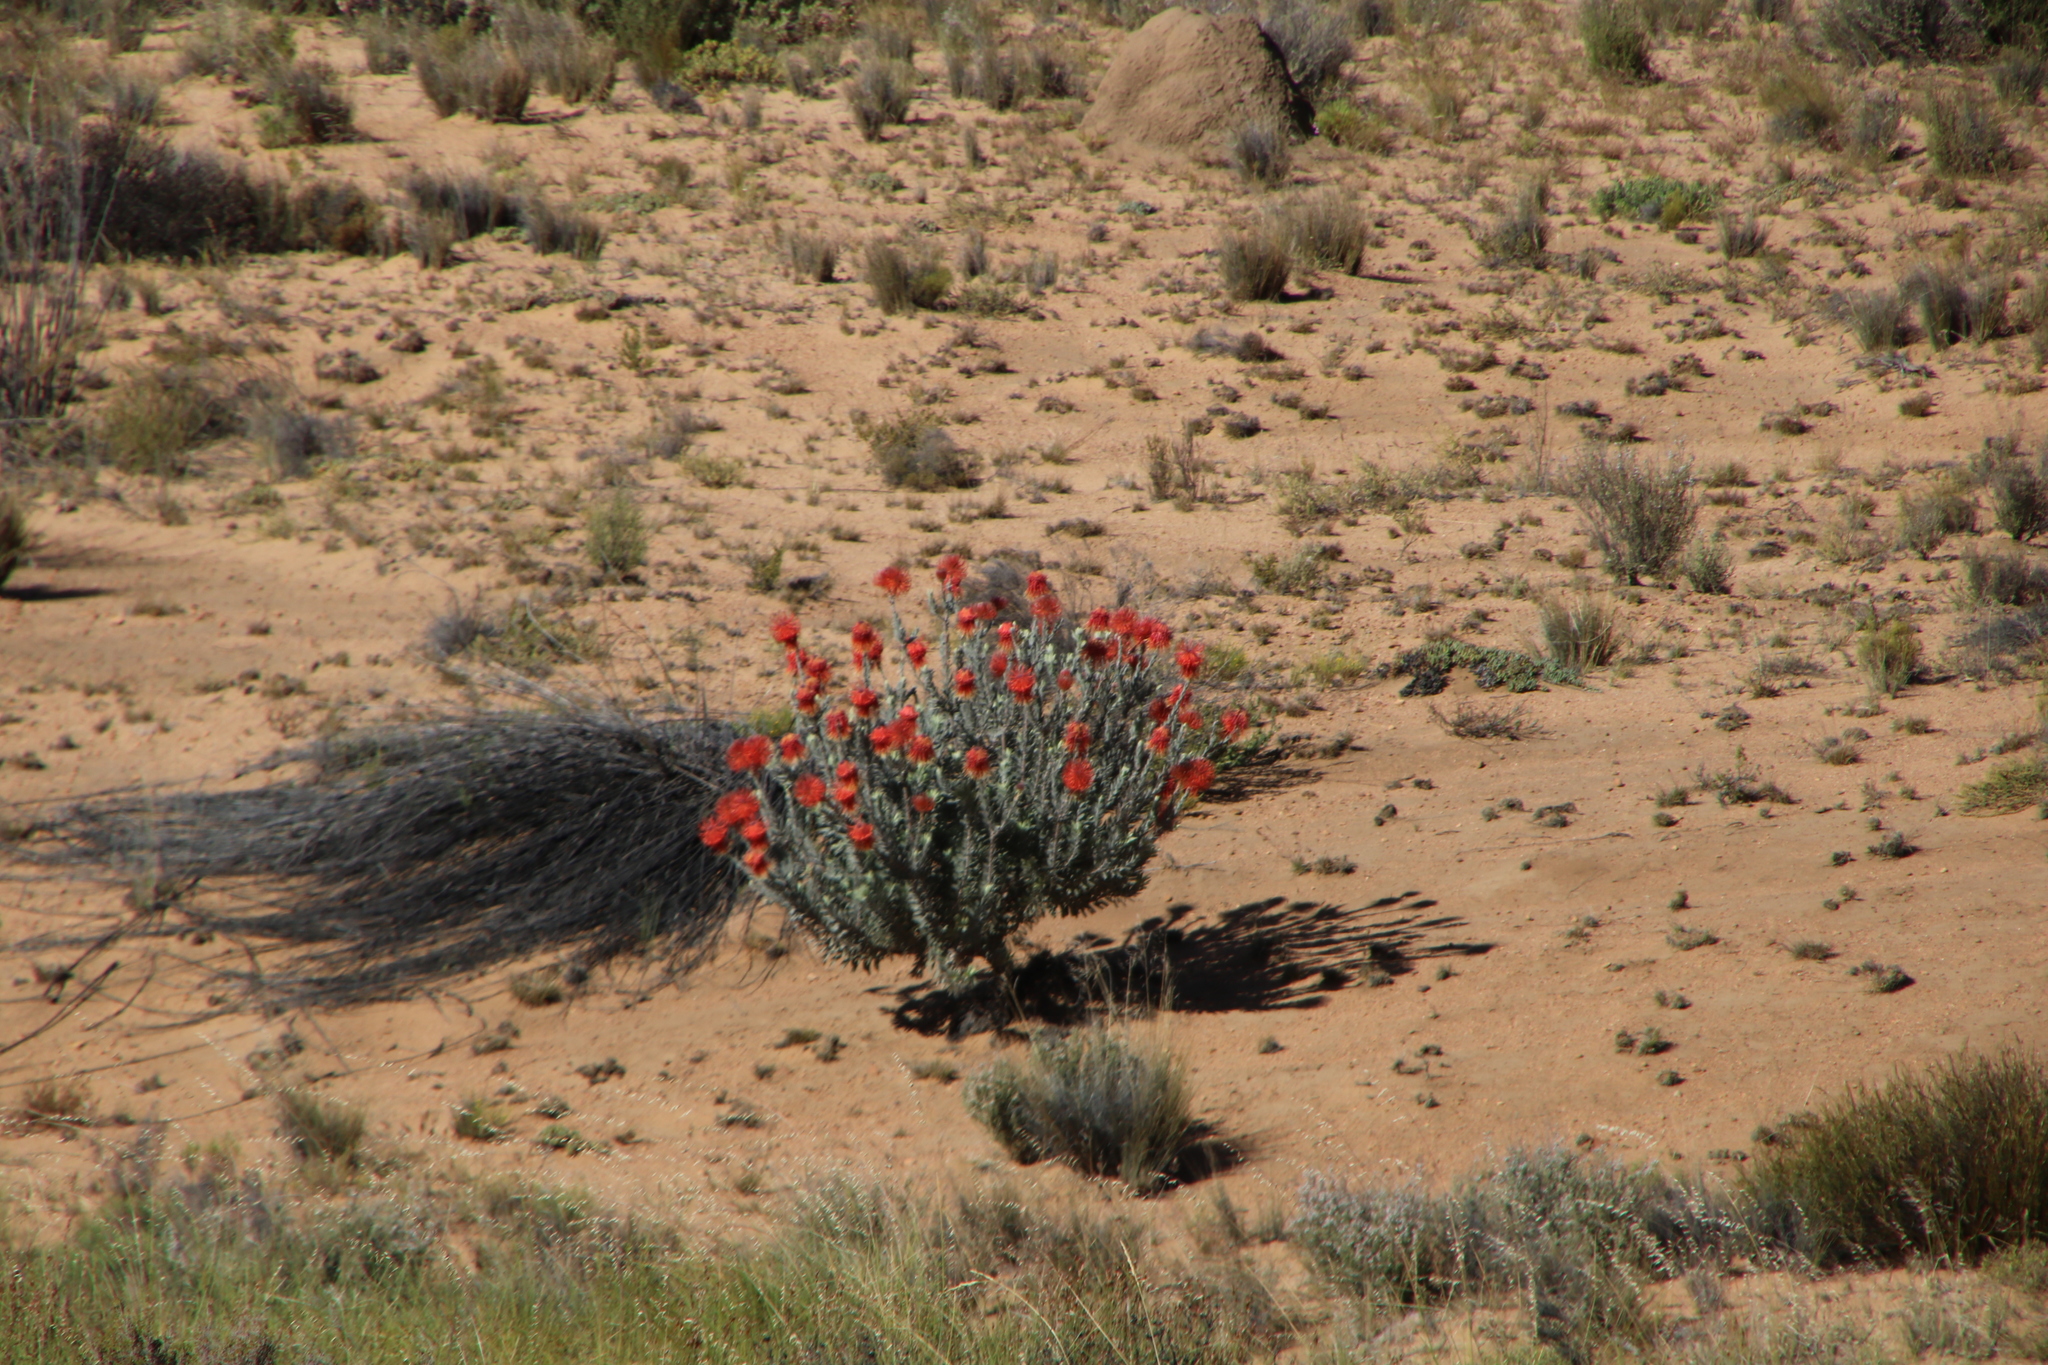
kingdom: Plantae
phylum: Tracheophyta
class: Magnoliopsida
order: Proteales
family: Proteaceae
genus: Leucospermum
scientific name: Leucospermum reflexum
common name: Rocket pincushion
